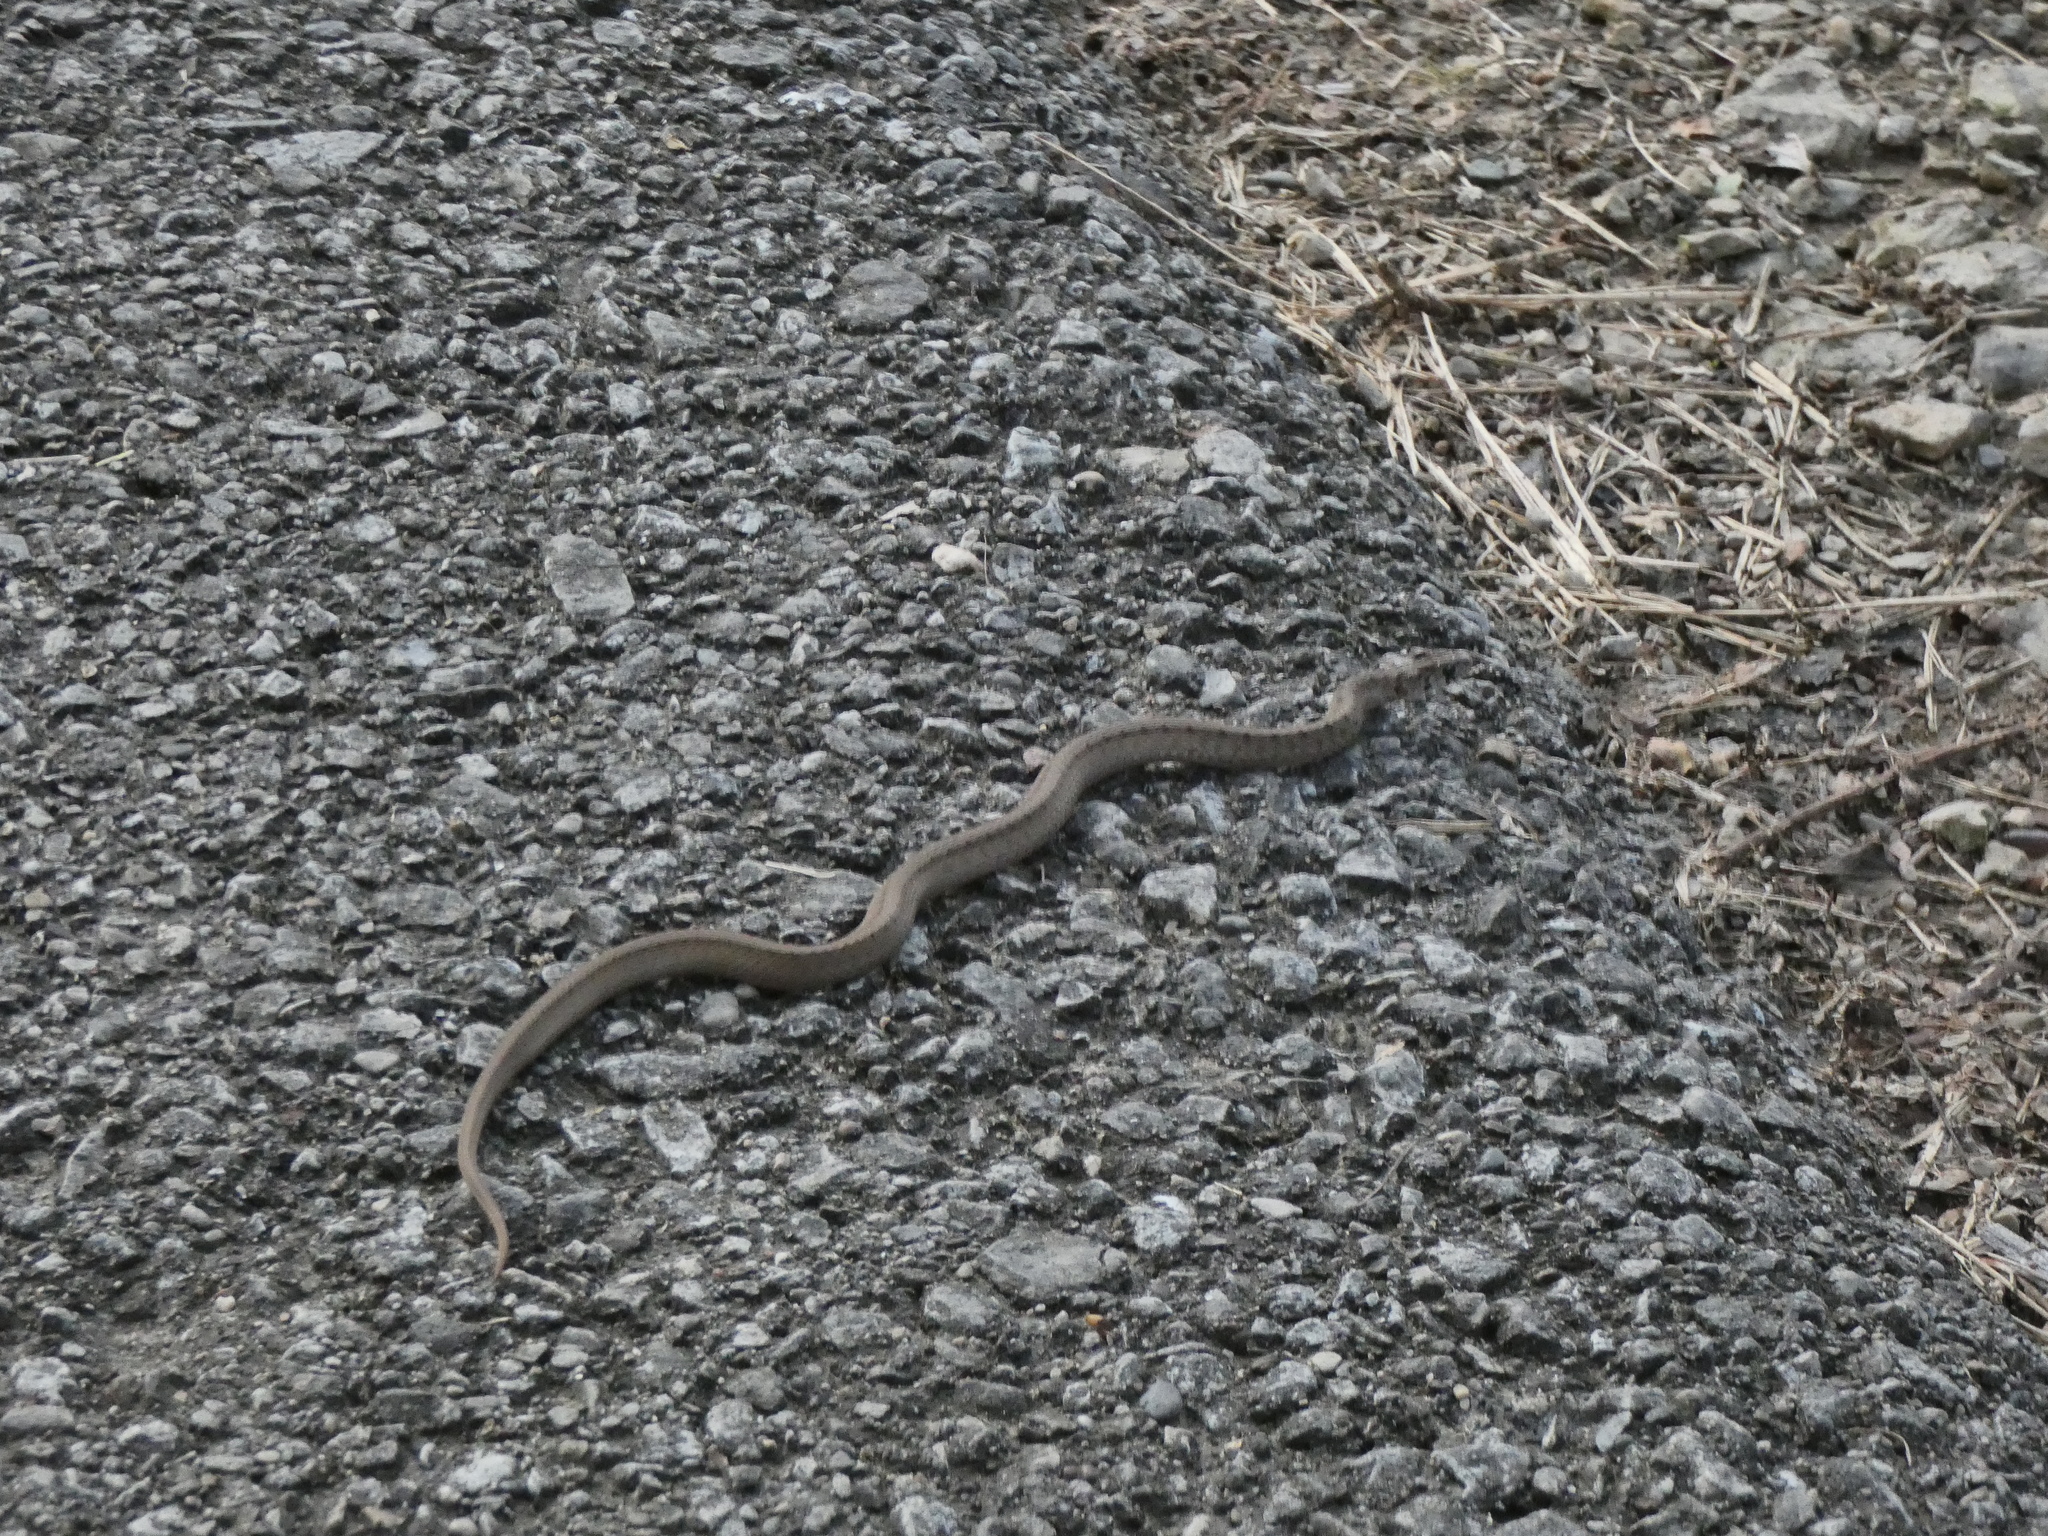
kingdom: Animalia
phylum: Chordata
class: Squamata
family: Colubridae
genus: Storeria
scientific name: Storeria dekayi
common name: (dekay’s) brown snake
